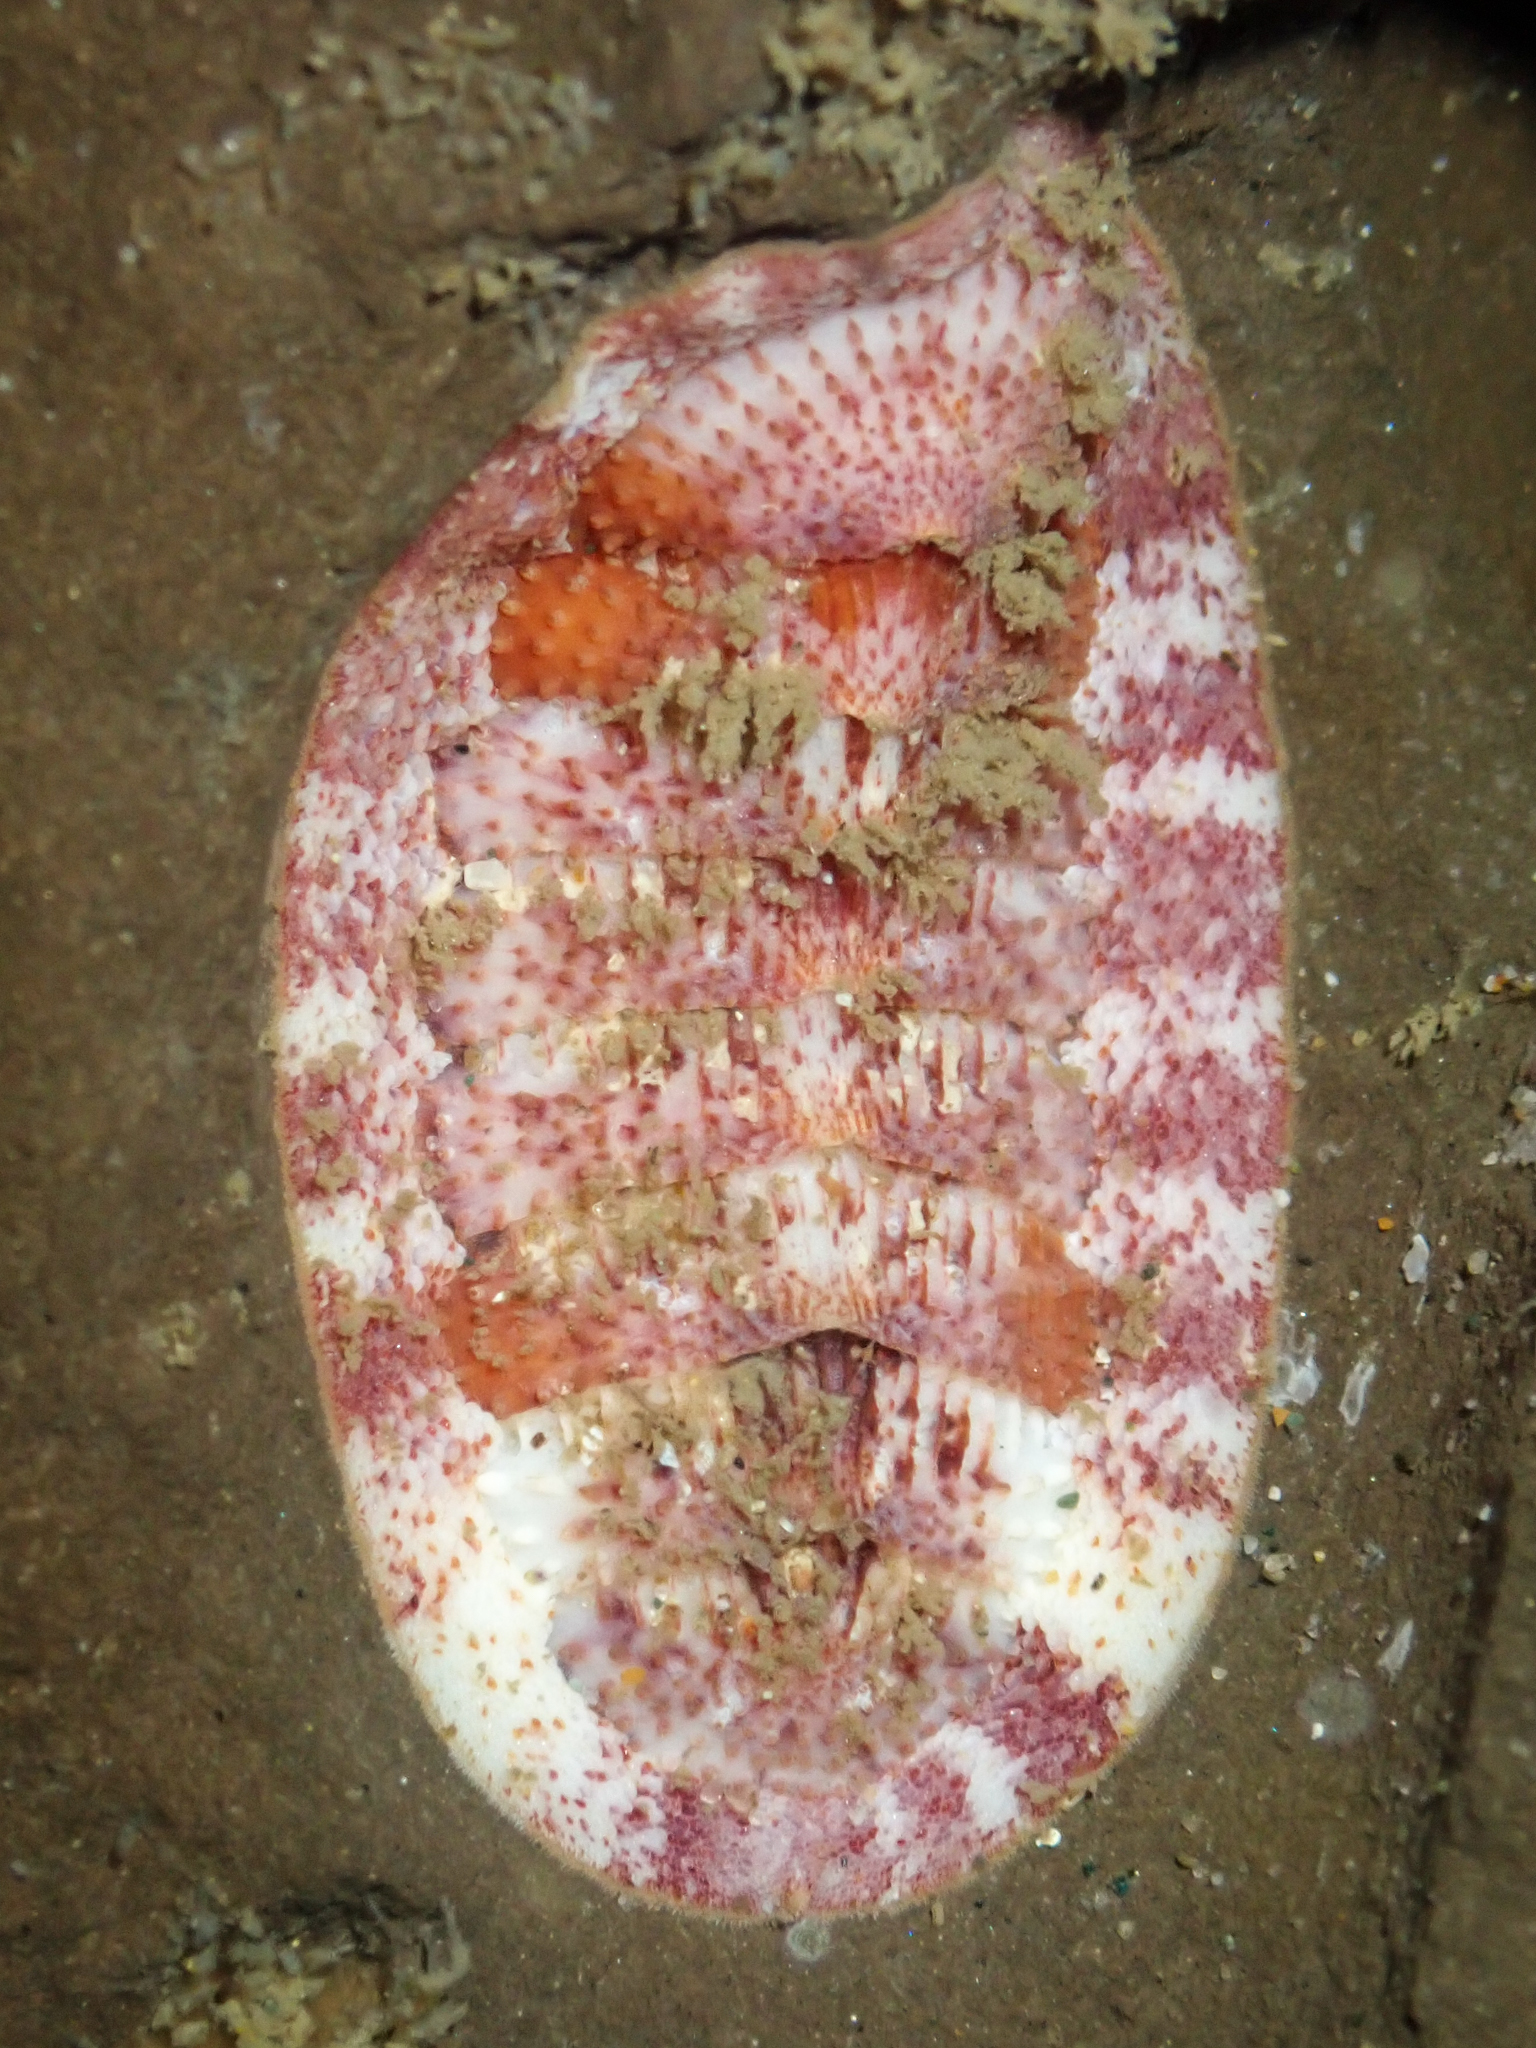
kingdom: Animalia
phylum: Mollusca
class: Polyplacophora
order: Chitonida
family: Ischnochitonidae
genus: Lepidozona
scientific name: Lepidozona mertensii
